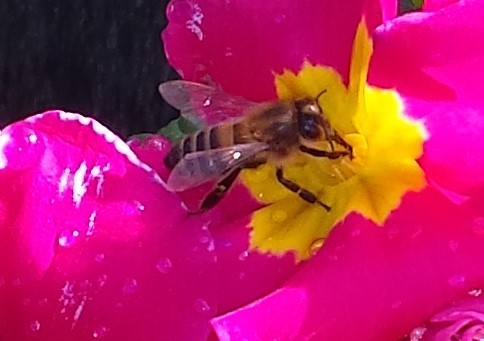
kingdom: Animalia
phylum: Arthropoda
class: Insecta
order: Hymenoptera
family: Apidae
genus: Apis
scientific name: Apis mellifera
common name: Honey bee
